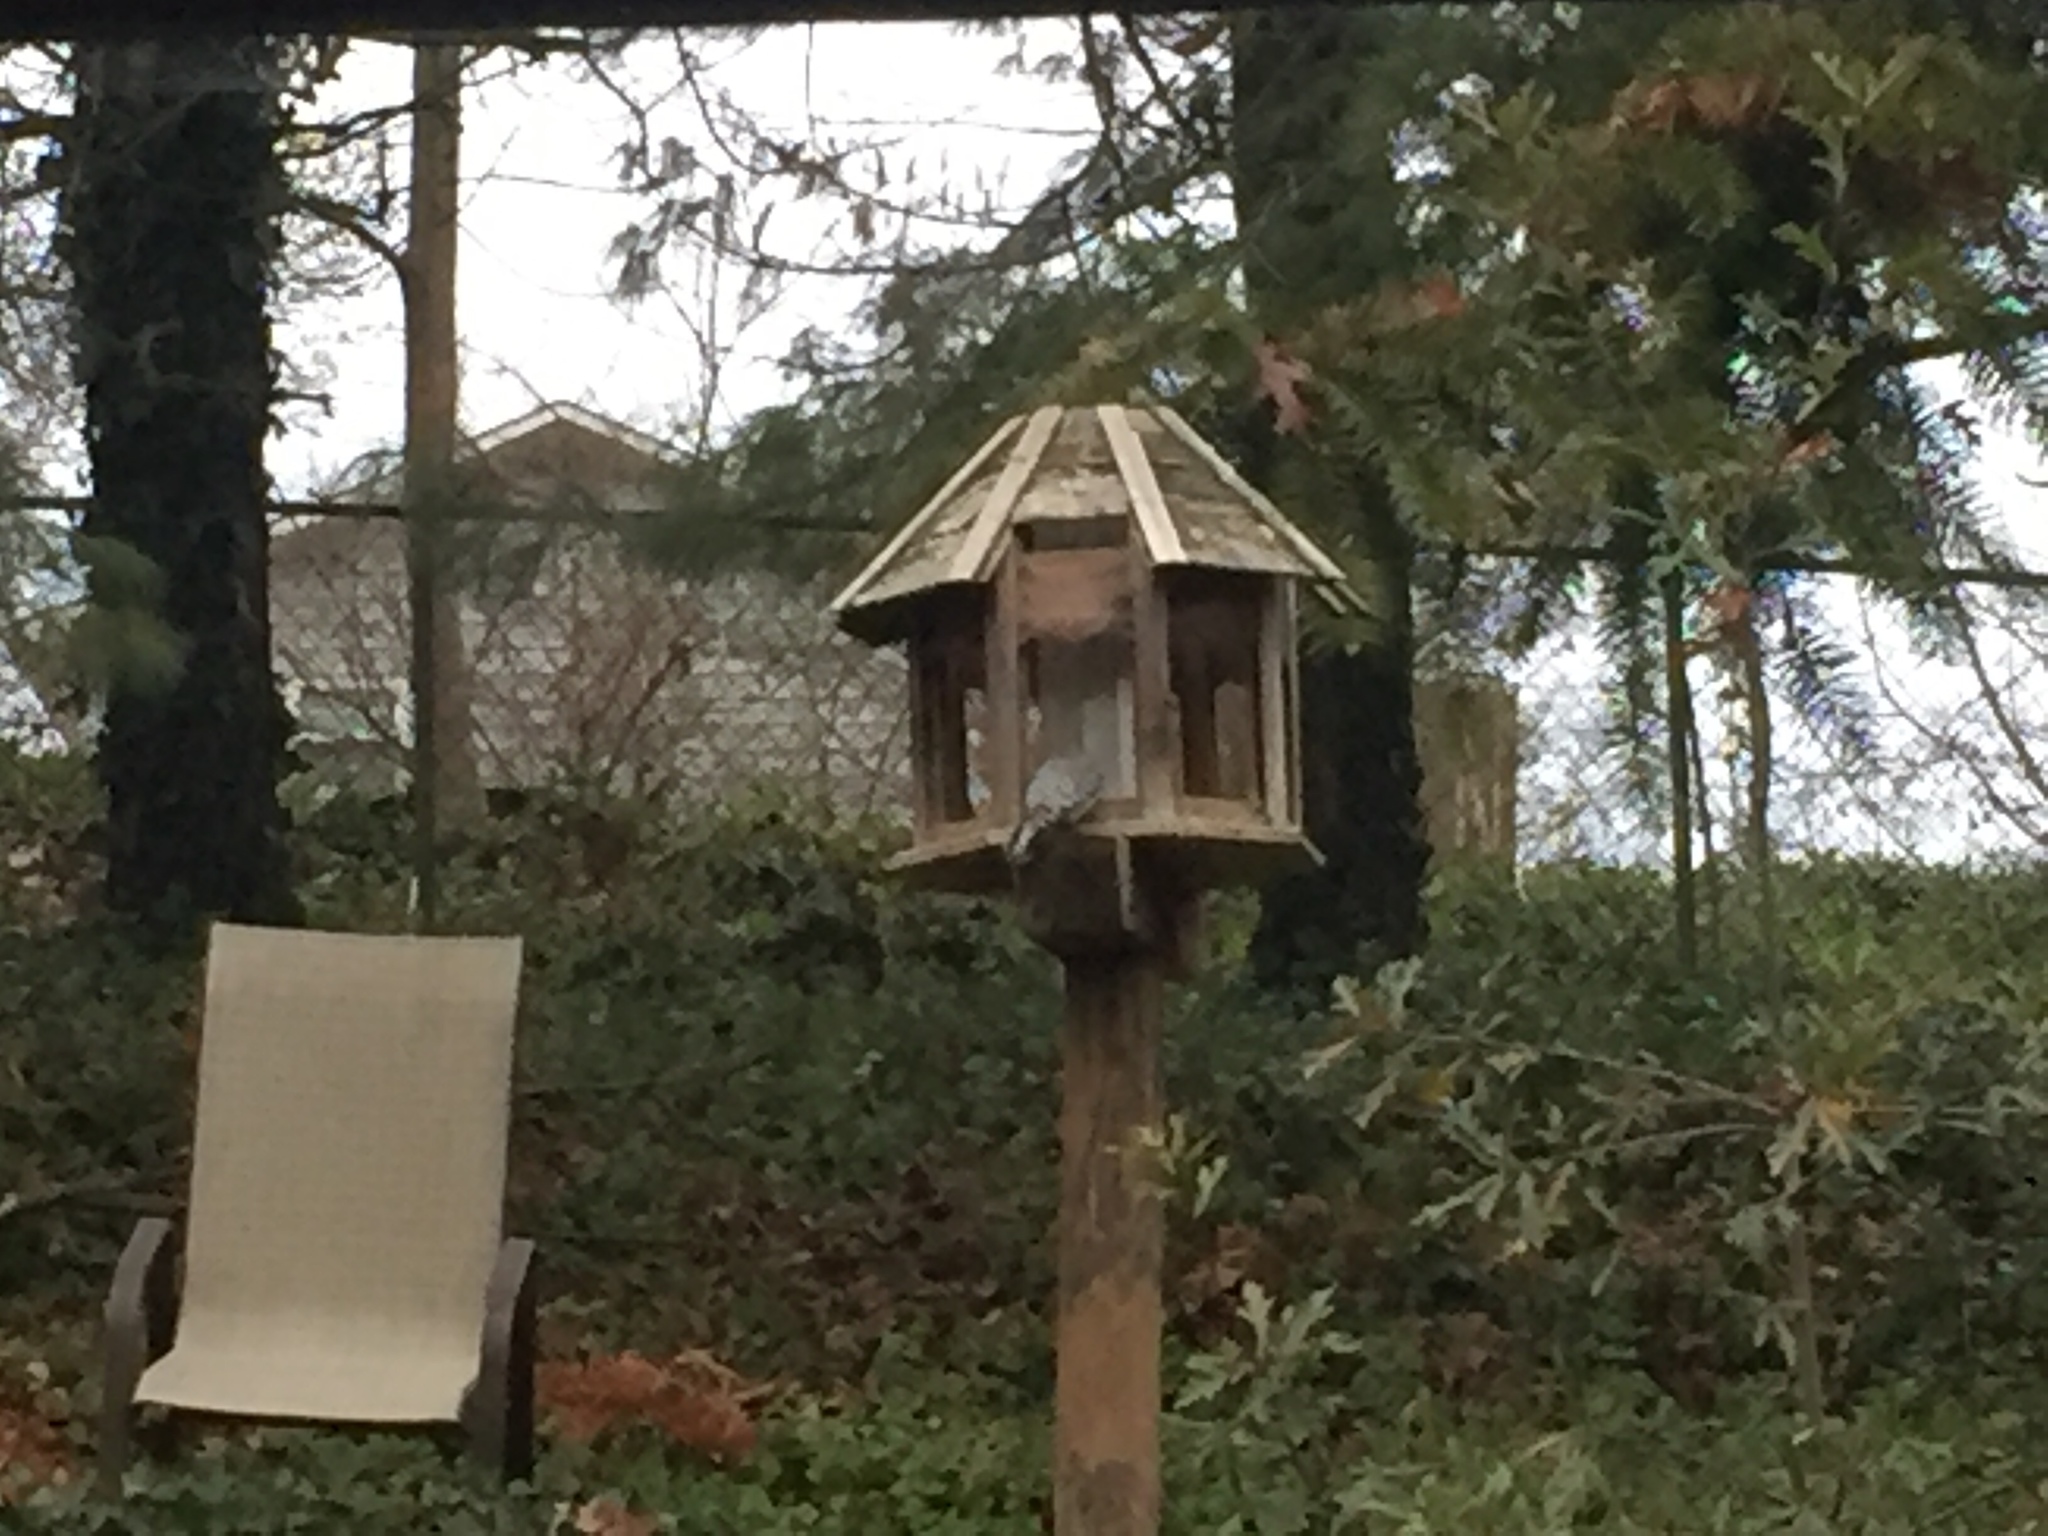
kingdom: Animalia
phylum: Chordata
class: Aves
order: Piciformes
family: Picidae
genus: Melanerpes
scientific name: Melanerpes carolinus
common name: Red-bellied woodpecker
